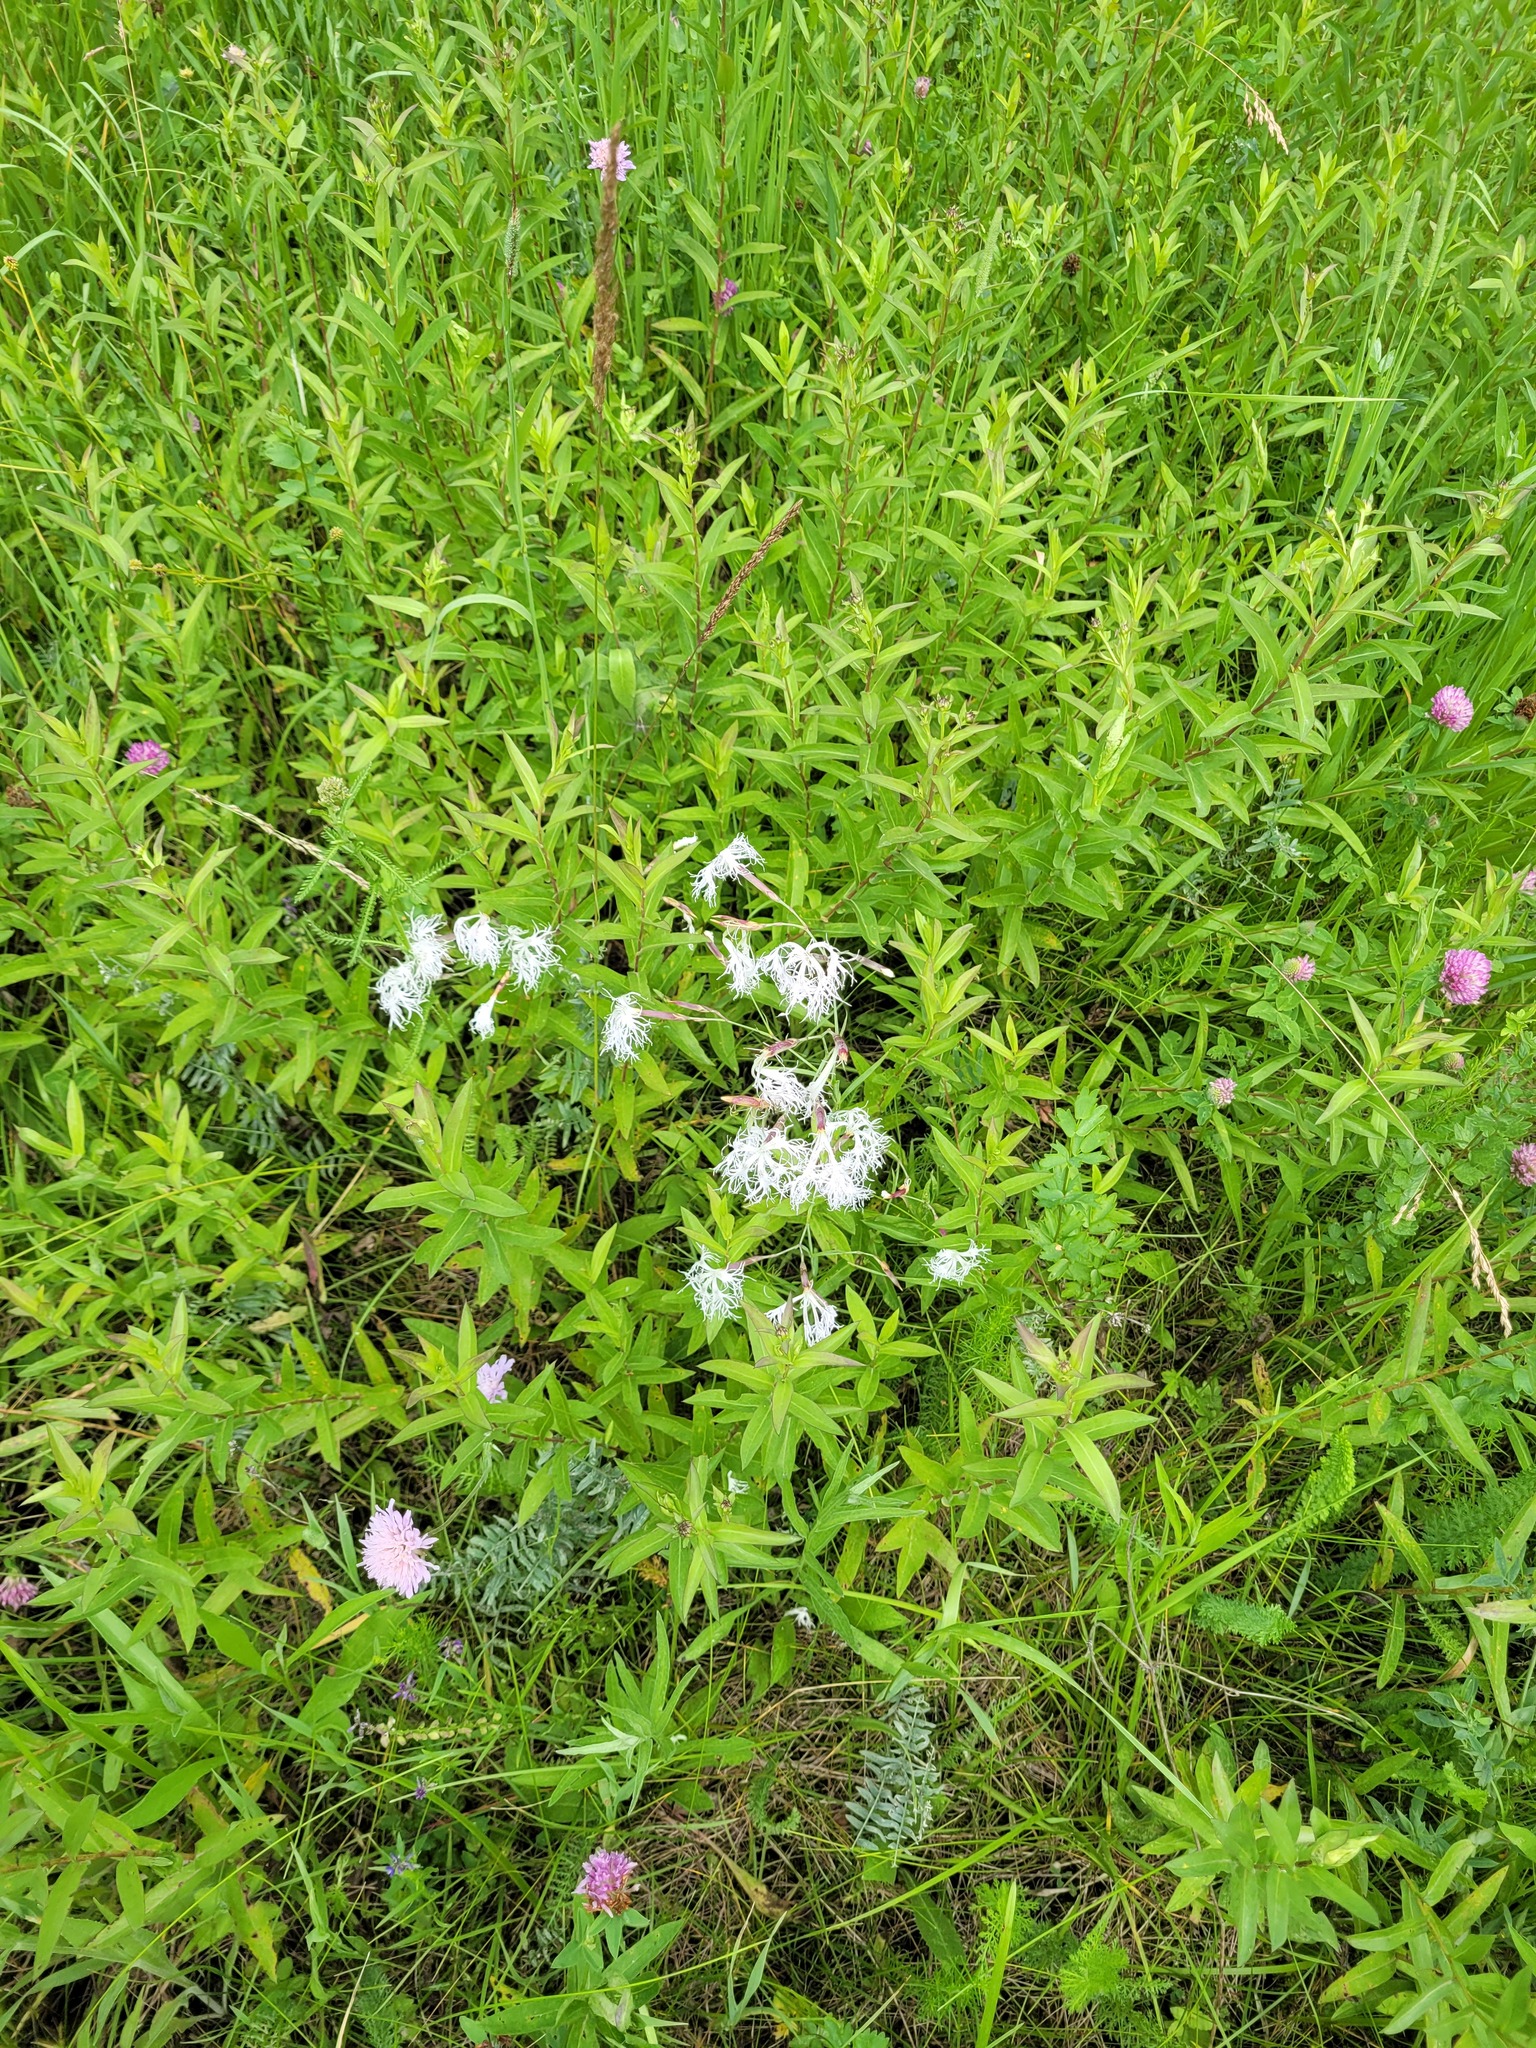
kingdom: Plantae
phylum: Tracheophyta
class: Magnoliopsida
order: Caryophyllales
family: Caryophyllaceae
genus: Dianthus
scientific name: Dianthus superbus
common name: Fringed pink
